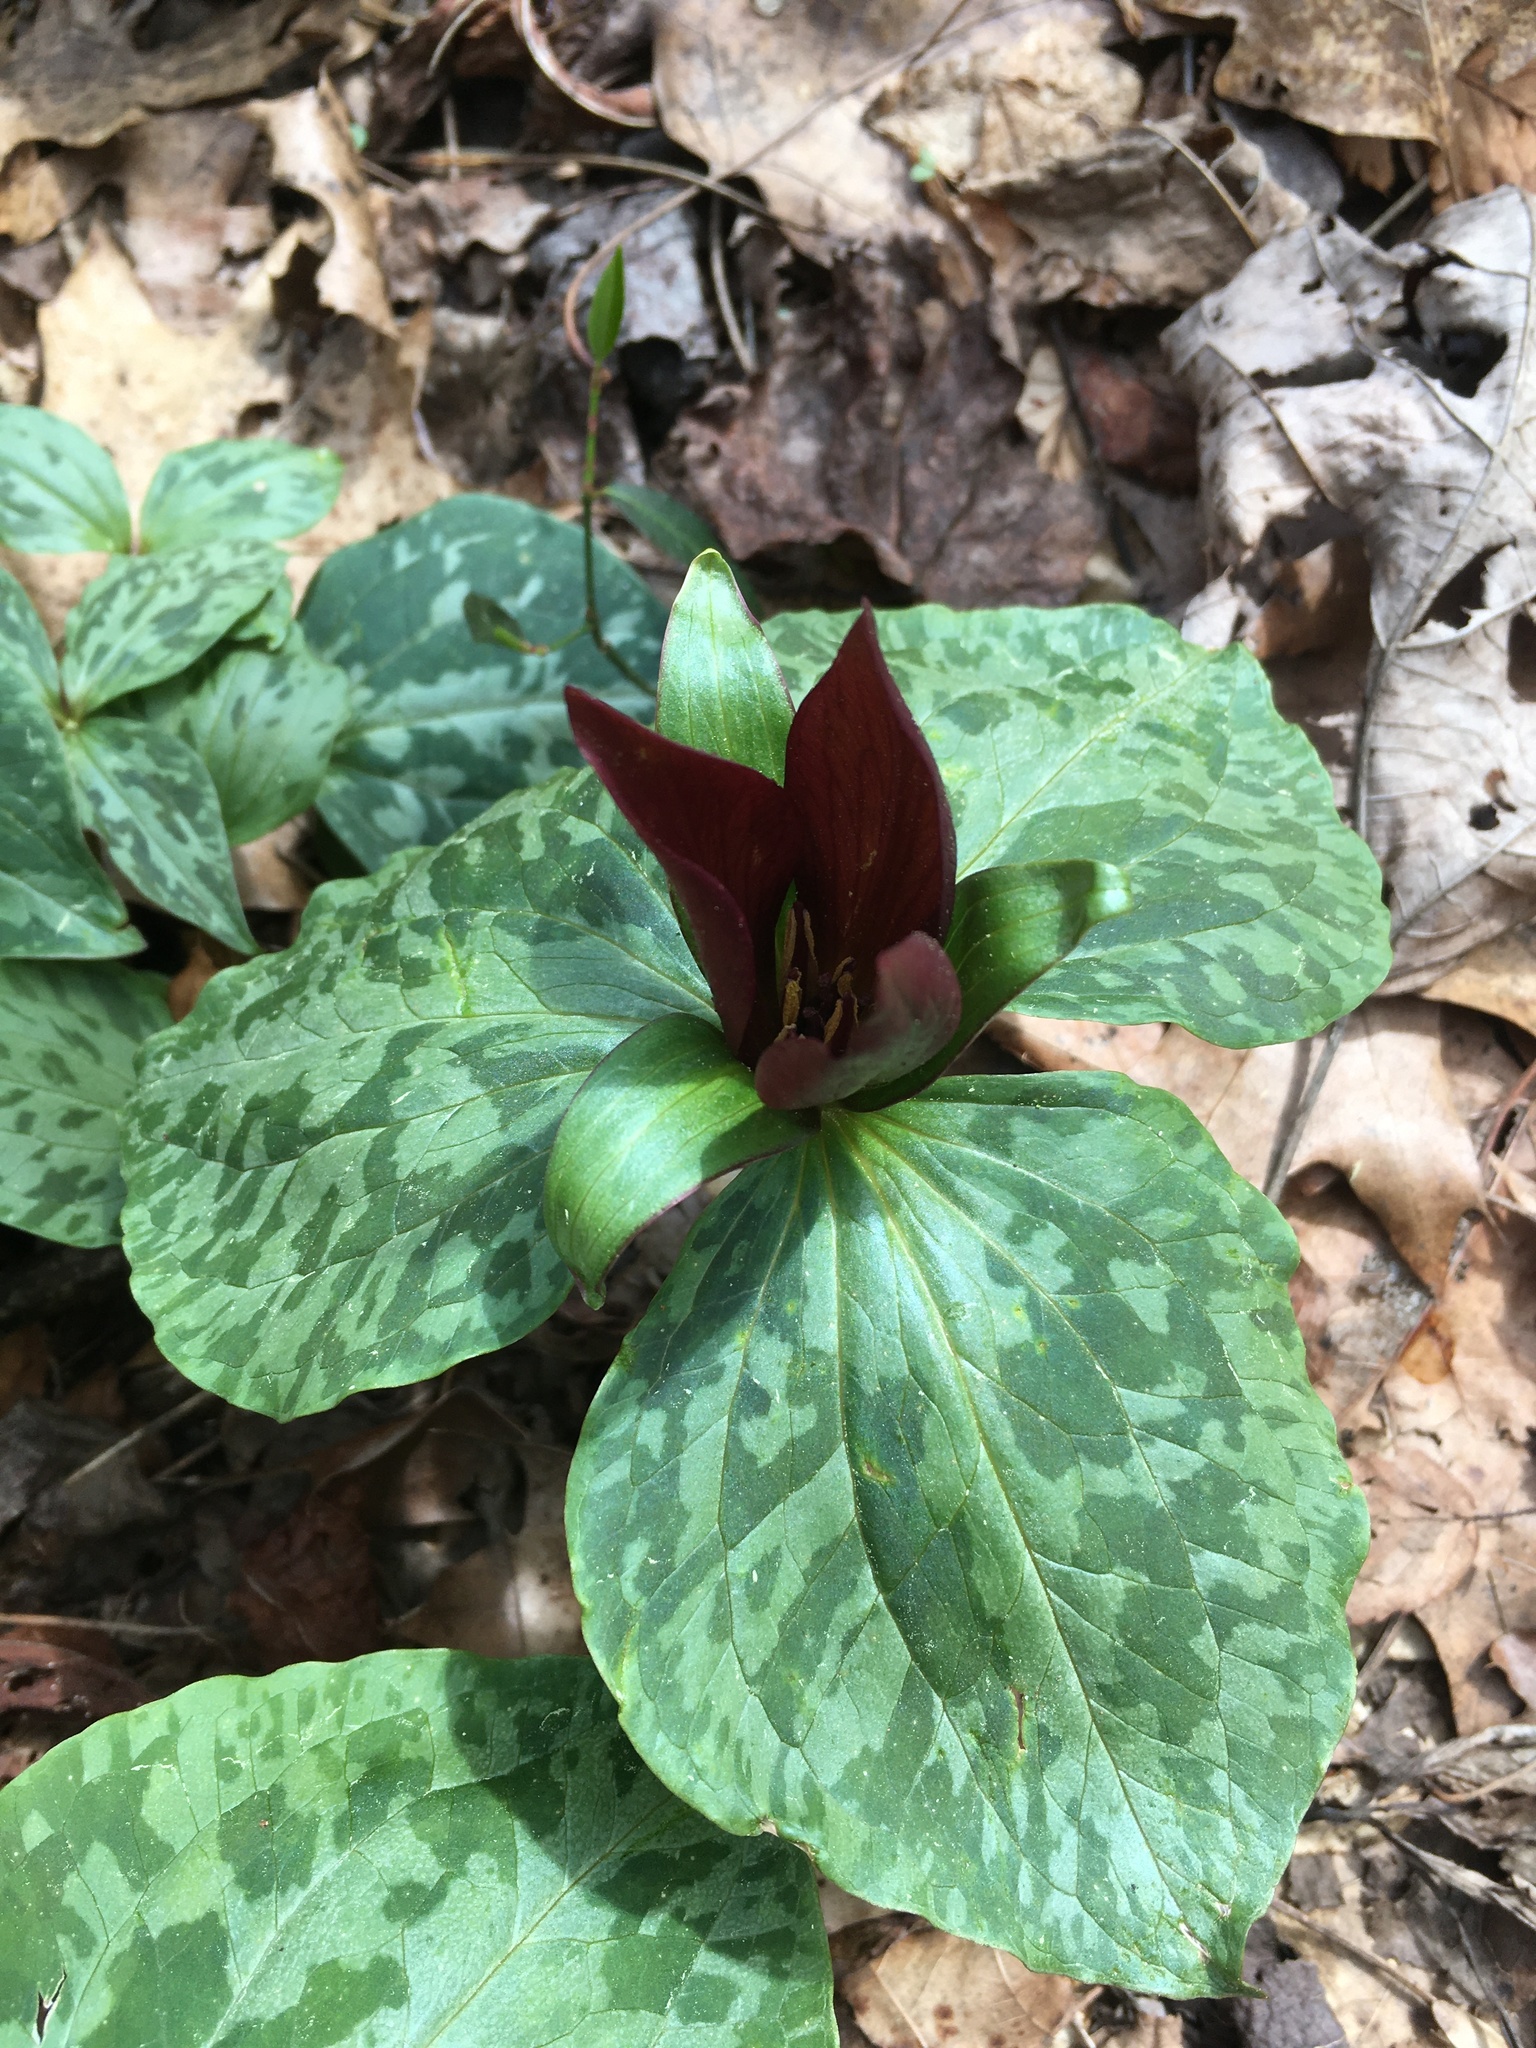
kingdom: Plantae
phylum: Tracheophyta
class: Liliopsida
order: Liliales
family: Melanthiaceae
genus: Trillium
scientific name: Trillium cuneatum
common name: Cuneate trillium
